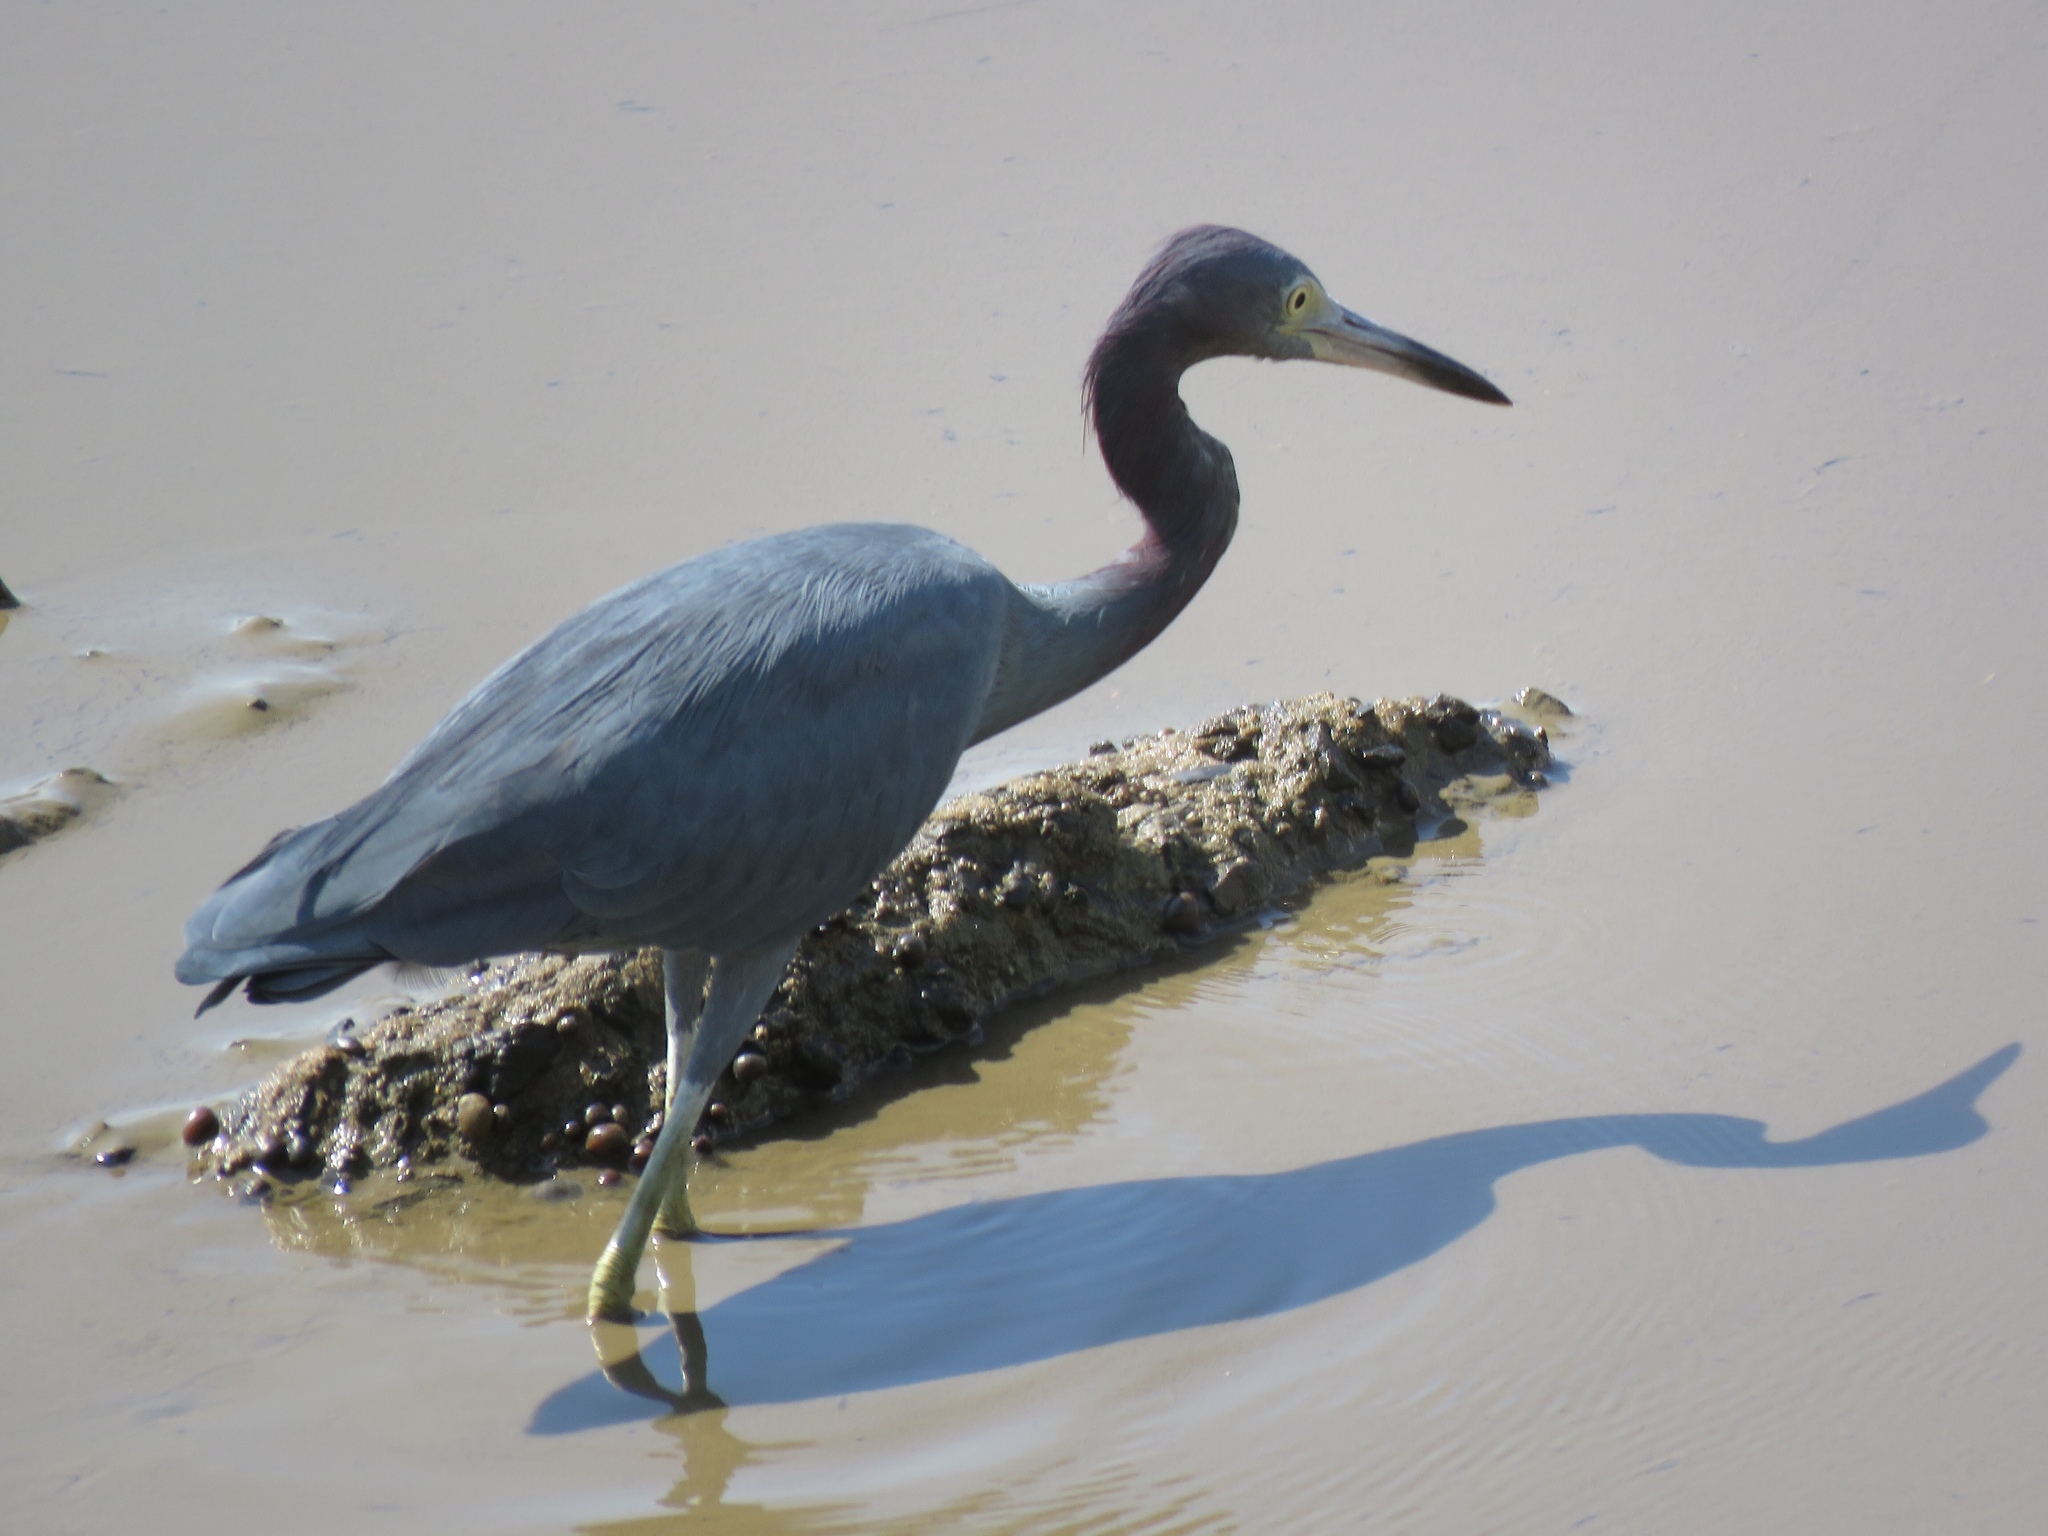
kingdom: Animalia
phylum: Chordata
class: Aves
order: Pelecaniformes
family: Ardeidae
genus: Egretta
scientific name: Egretta caerulea
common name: Little blue heron
